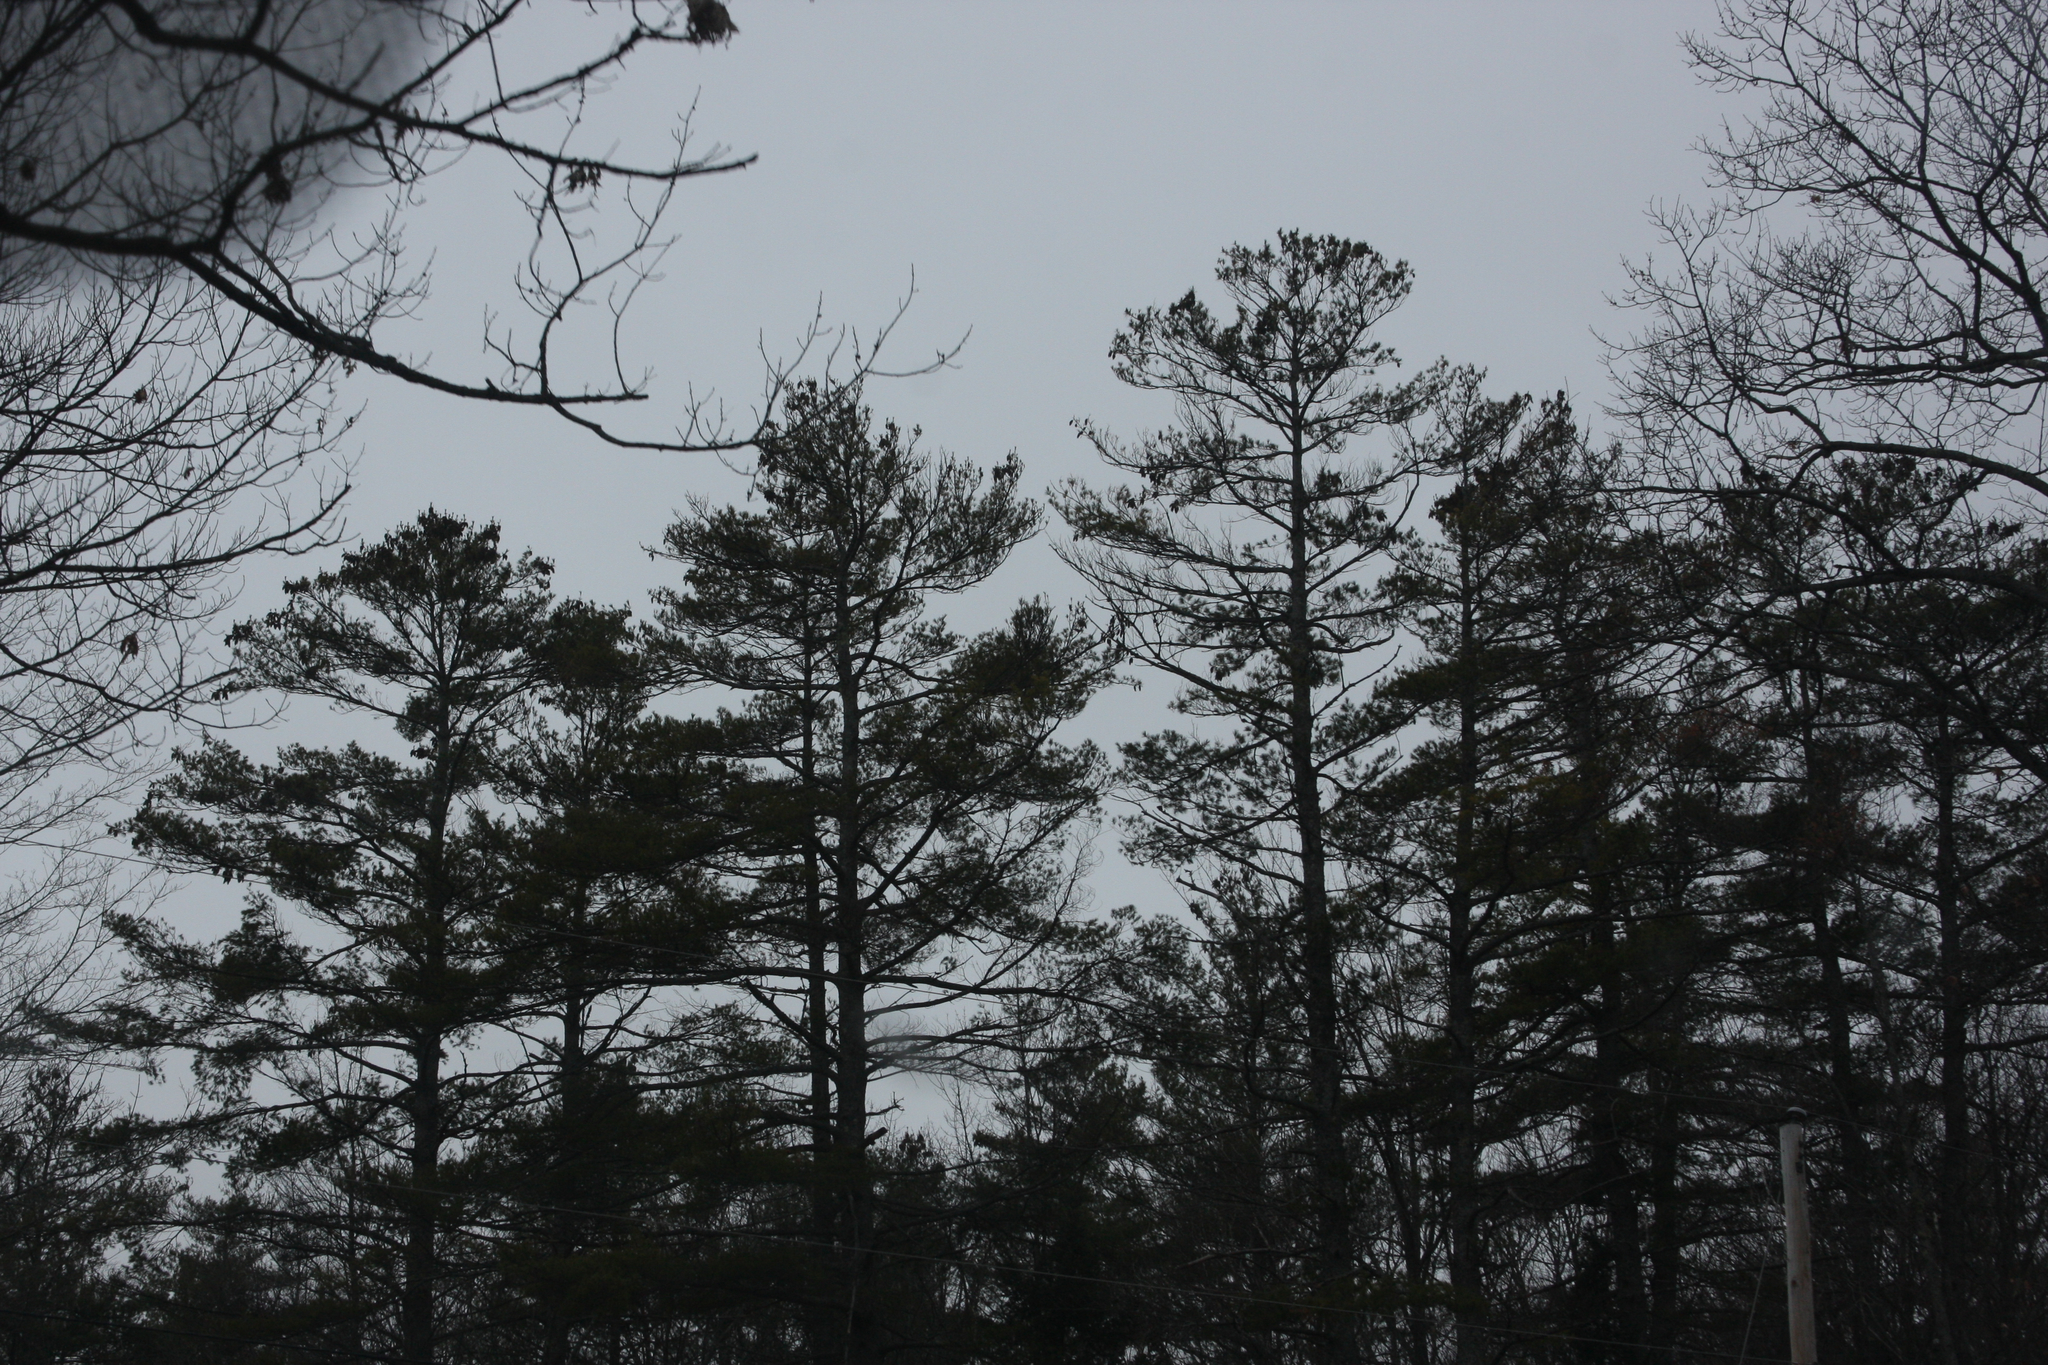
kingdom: Plantae
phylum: Tracheophyta
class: Pinopsida
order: Pinales
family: Pinaceae
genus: Pinus
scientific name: Pinus strobus
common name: Weymouth pine
